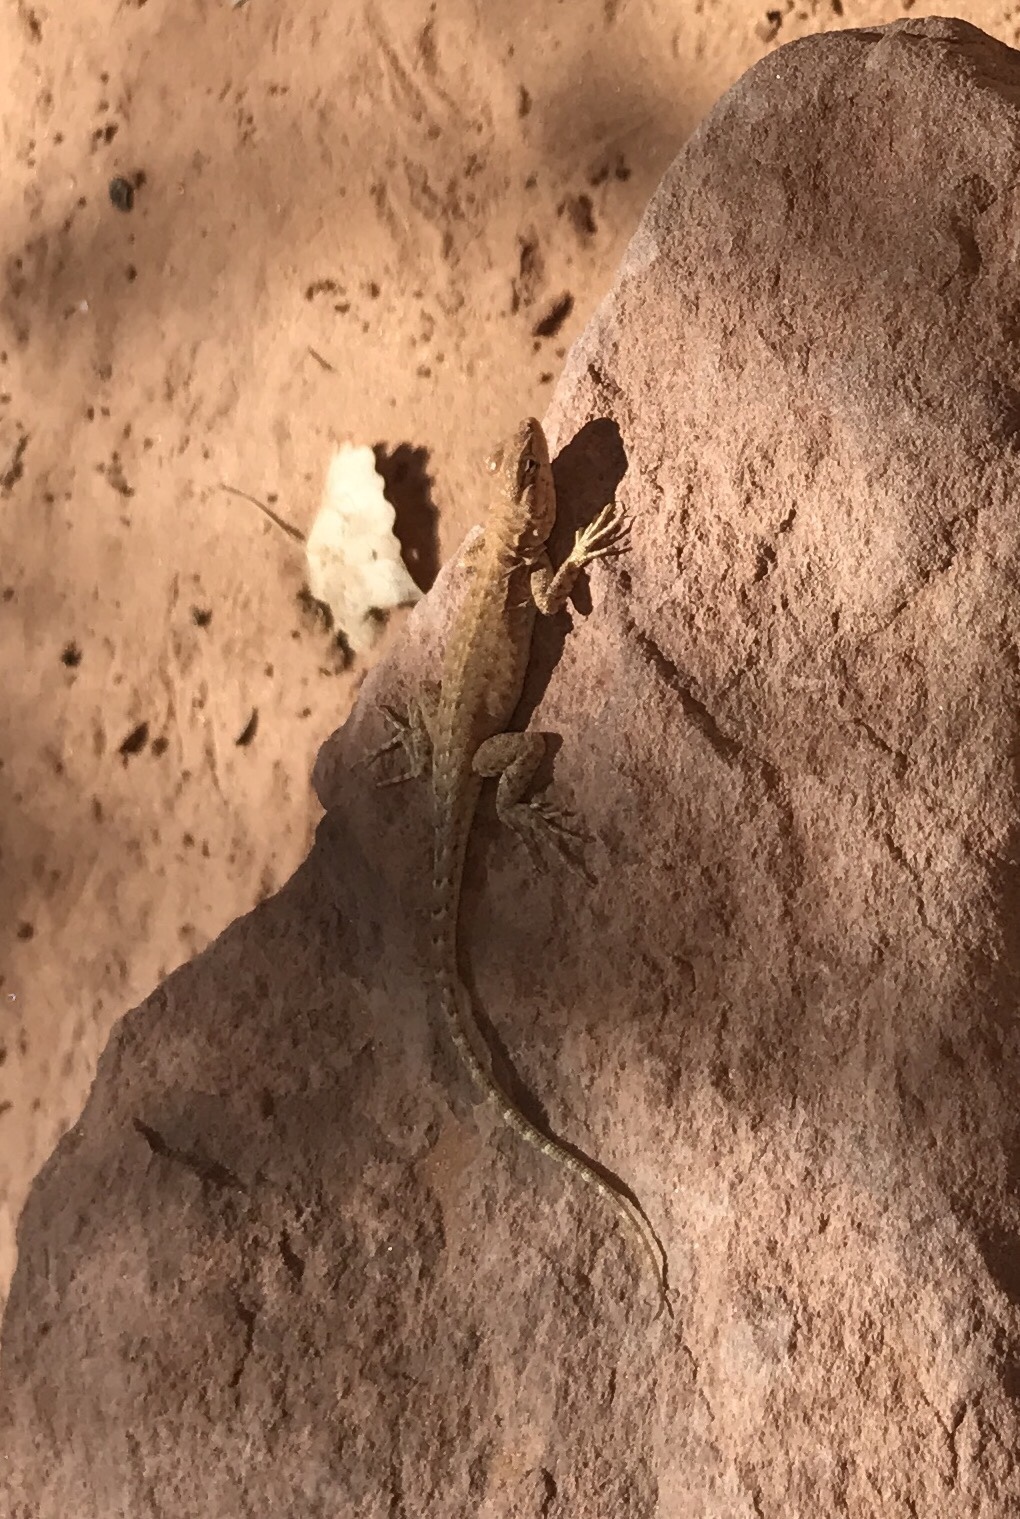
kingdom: Animalia
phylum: Chordata
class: Squamata
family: Phrynosomatidae
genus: Uta
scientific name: Uta stansburiana
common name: Side-blotched lizard
